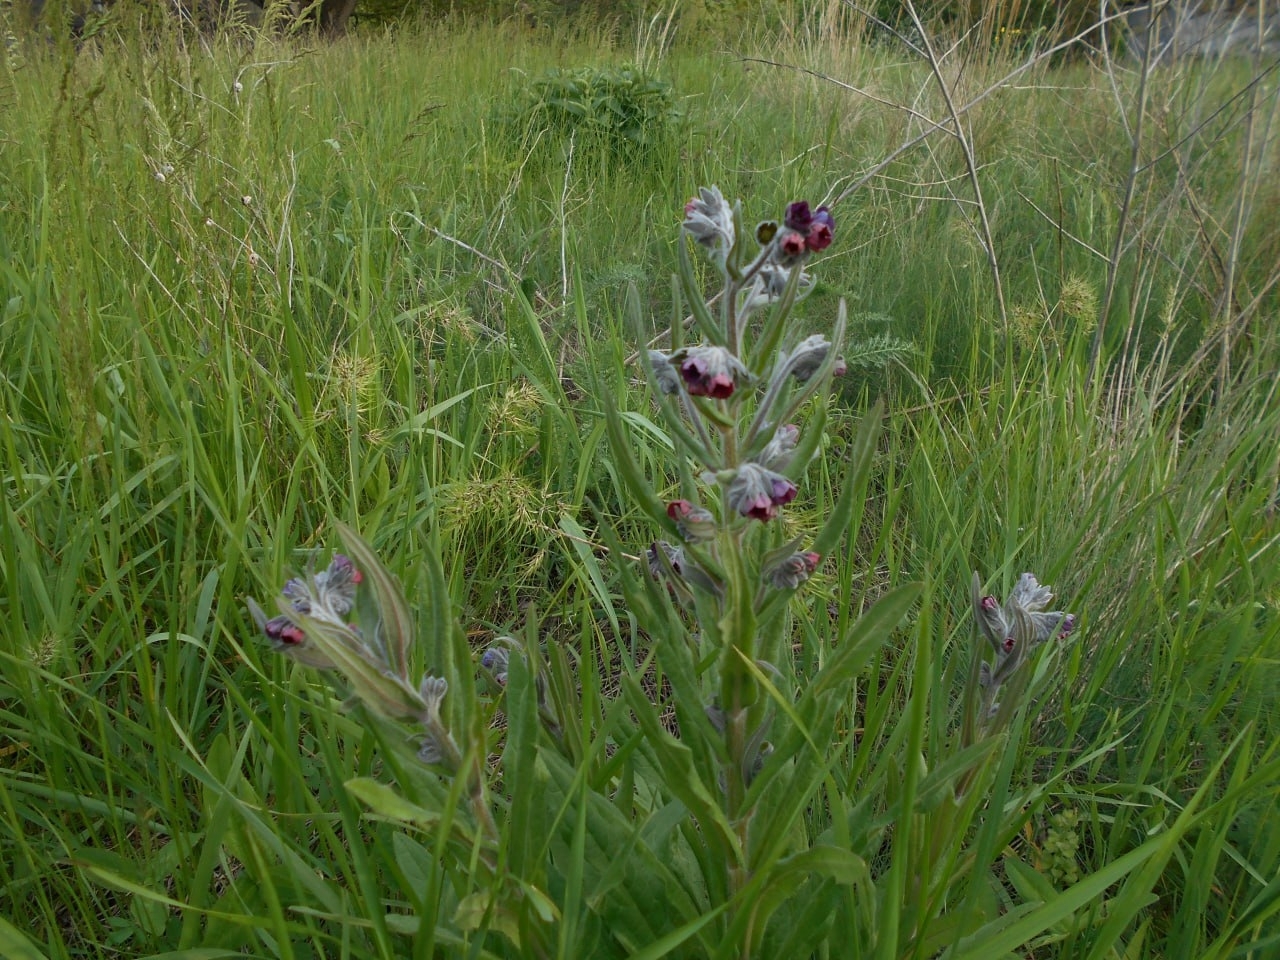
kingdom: Plantae
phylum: Tracheophyta
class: Magnoliopsida
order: Boraginales
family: Boraginaceae
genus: Cynoglossum
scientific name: Cynoglossum officinale
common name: Hound's-tongue
